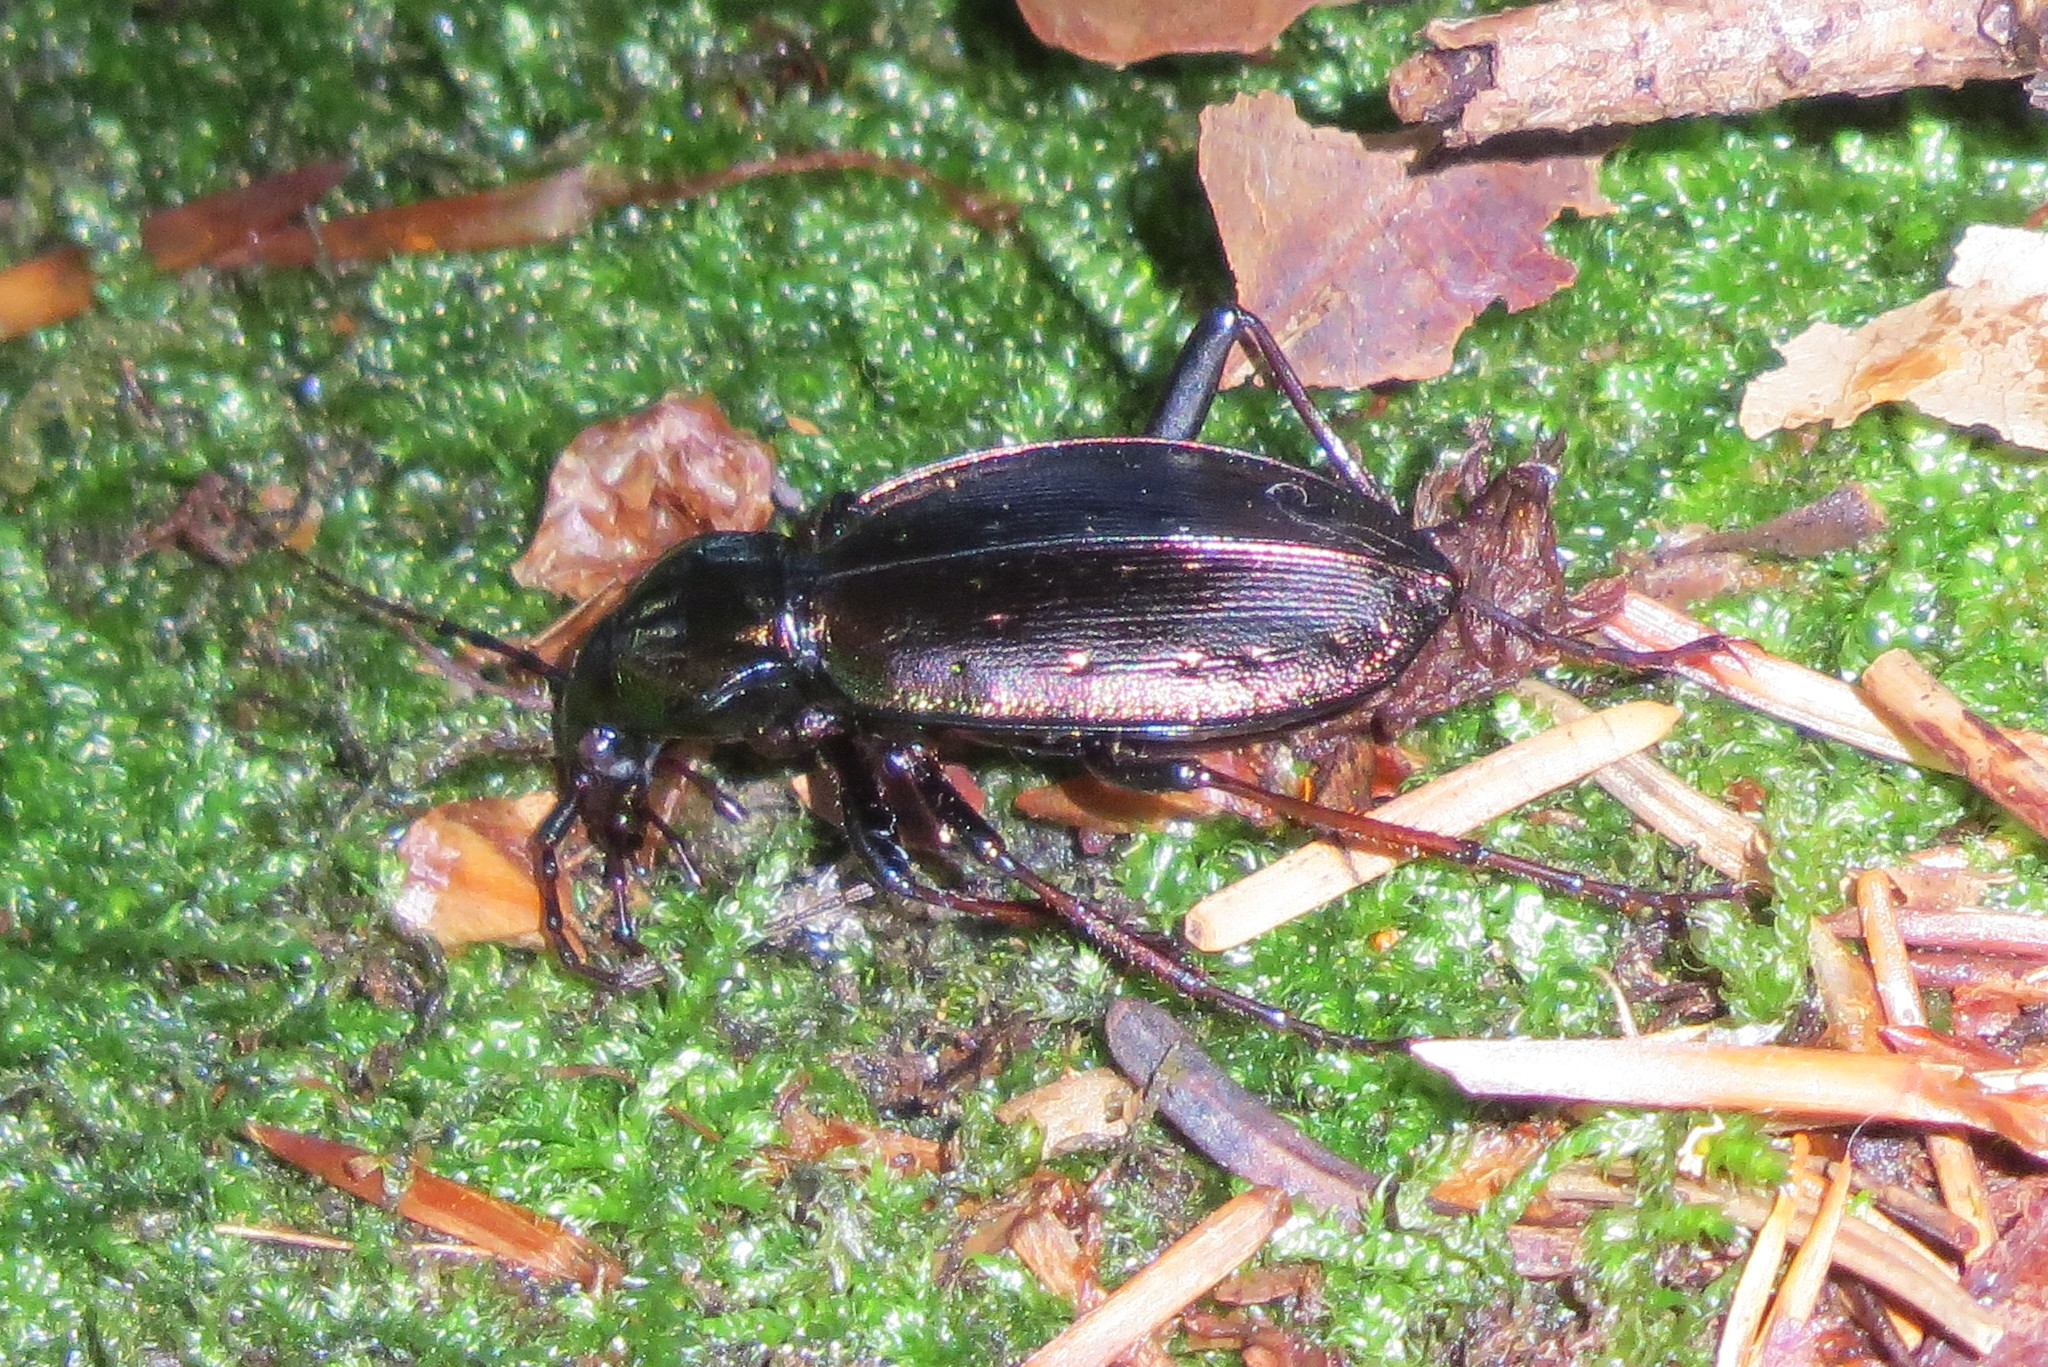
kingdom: Animalia
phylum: Arthropoda
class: Insecta
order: Coleoptera
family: Carabidae
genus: Carabus
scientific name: Carabus depressus
